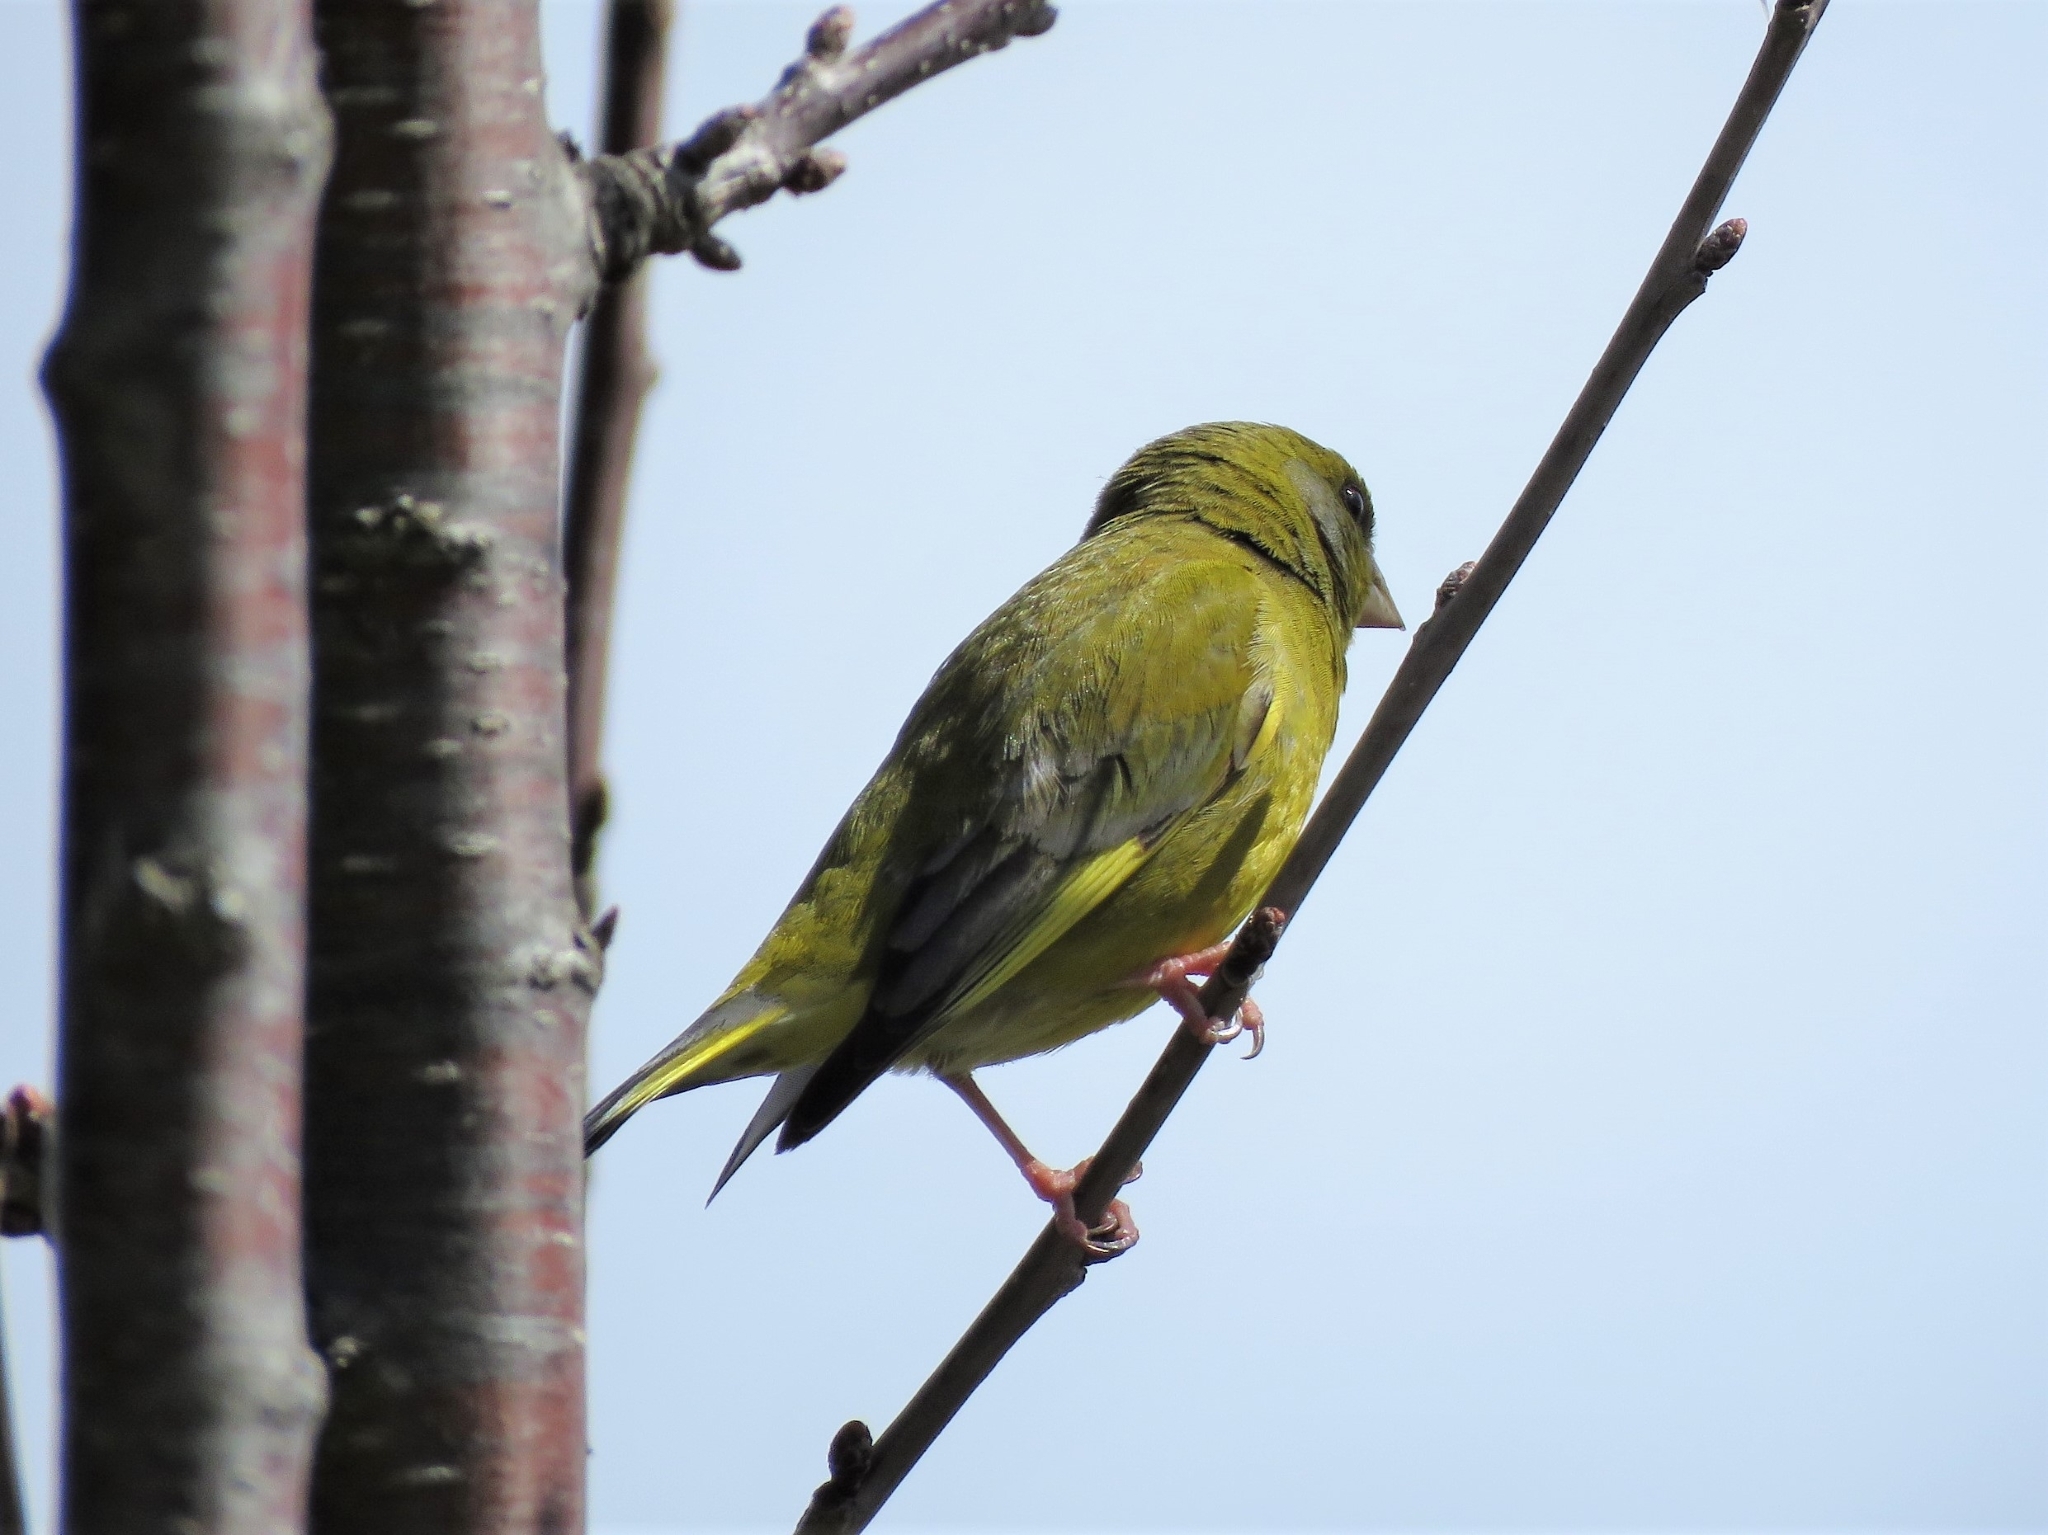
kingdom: Plantae
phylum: Tracheophyta
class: Liliopsida
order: Poales
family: Poaceae
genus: Chloris
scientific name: Chloris chloris
